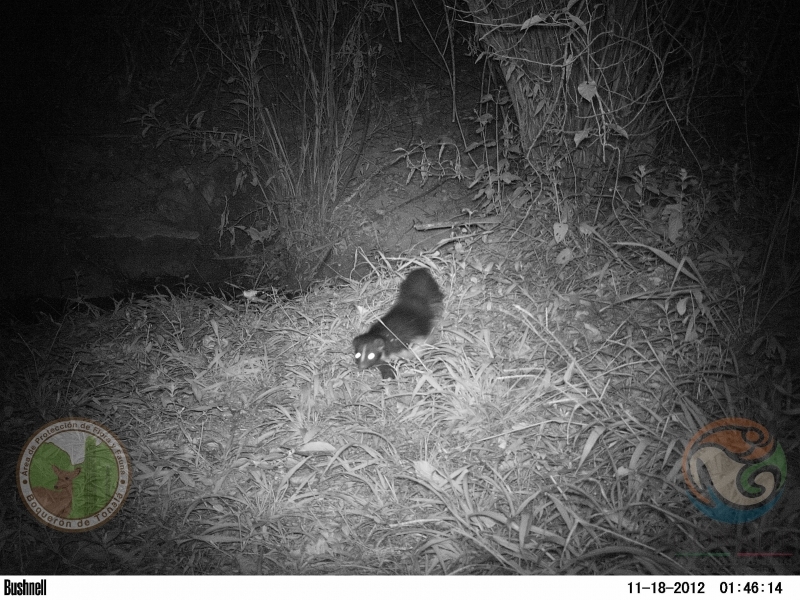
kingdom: Animalia
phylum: Chordata
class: Mammalia
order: Carnivora
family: Mephitidae
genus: Mephitis
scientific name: Mephitis macroura
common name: Hooded skunk
